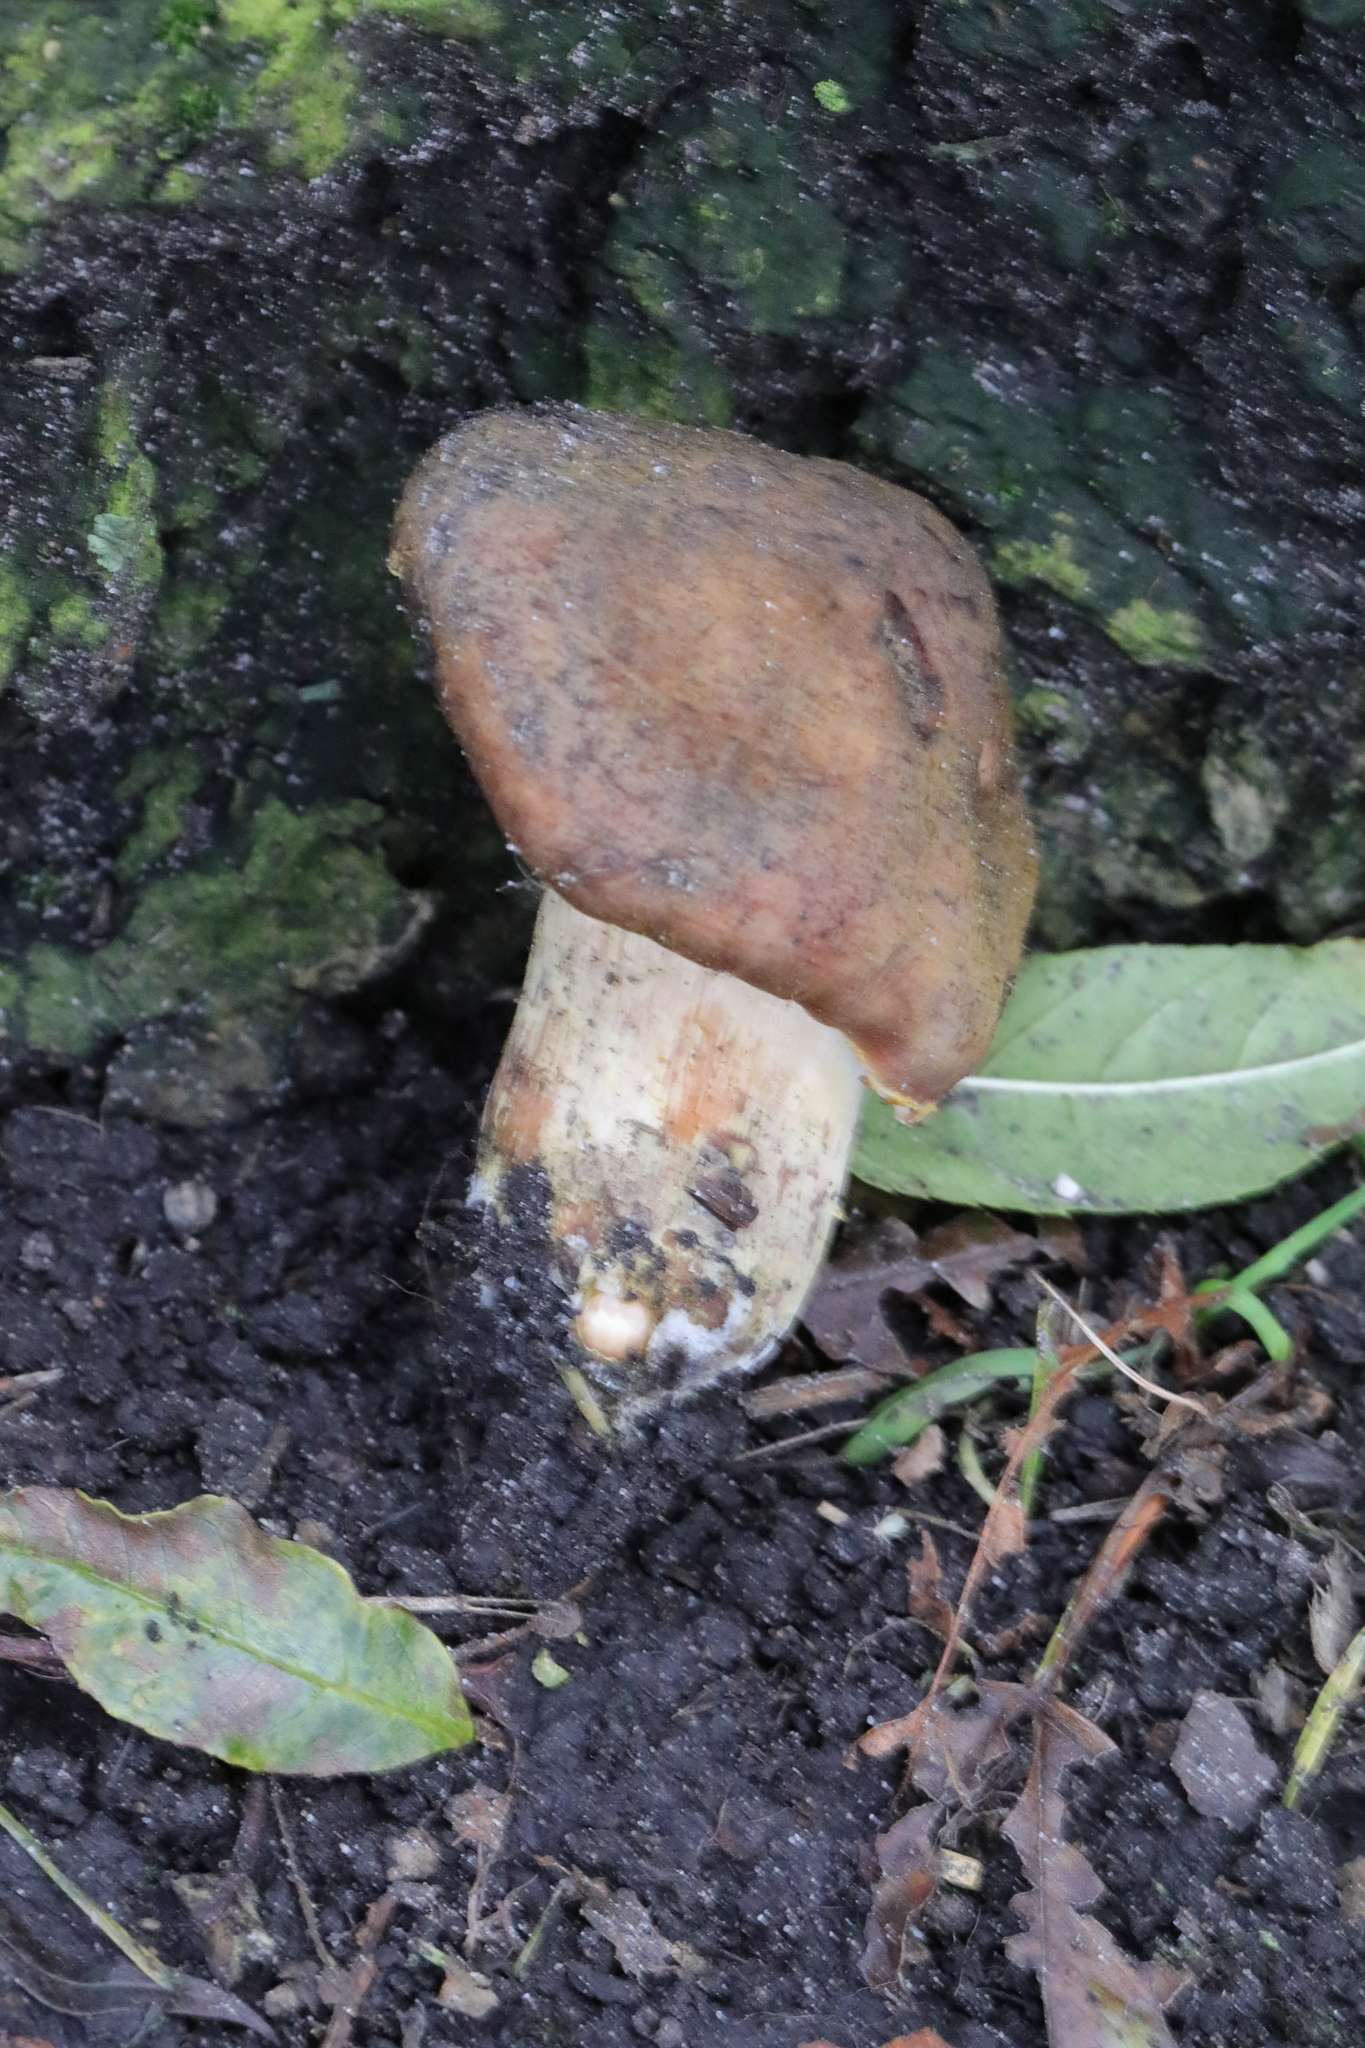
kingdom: Fungi
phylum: Basidiomycota
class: Agaricomycetes
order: Agaricales
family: Physalacriaceae
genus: Armillaria
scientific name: Armillaria ostoyae
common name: Dark honey fungus
